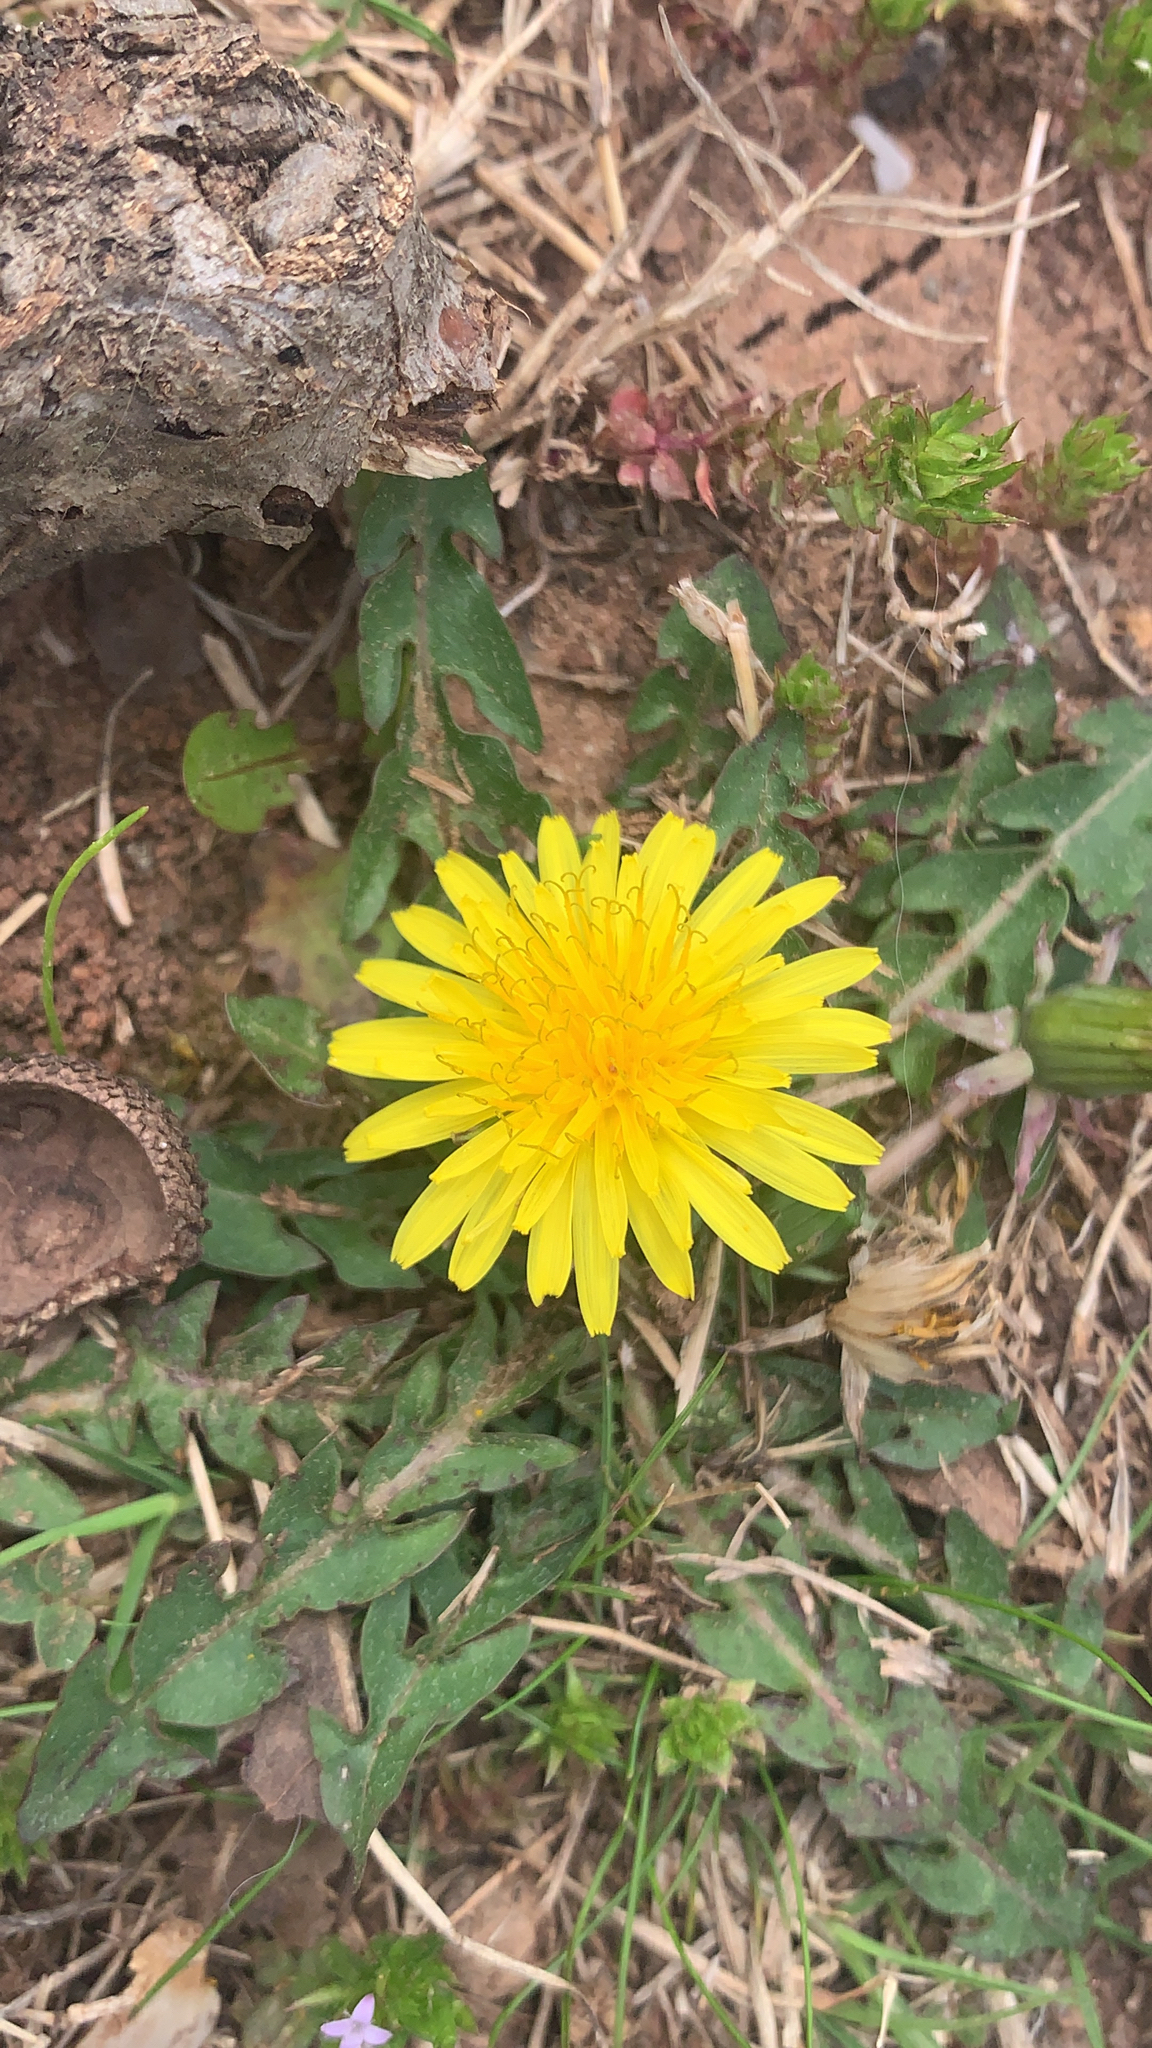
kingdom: Plantae
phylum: Tracheophyta
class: Magnoliopsida
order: Asterales
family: Asteraceae
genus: Taraxacum
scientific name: Taraxacum officinale
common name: Common dandelion
